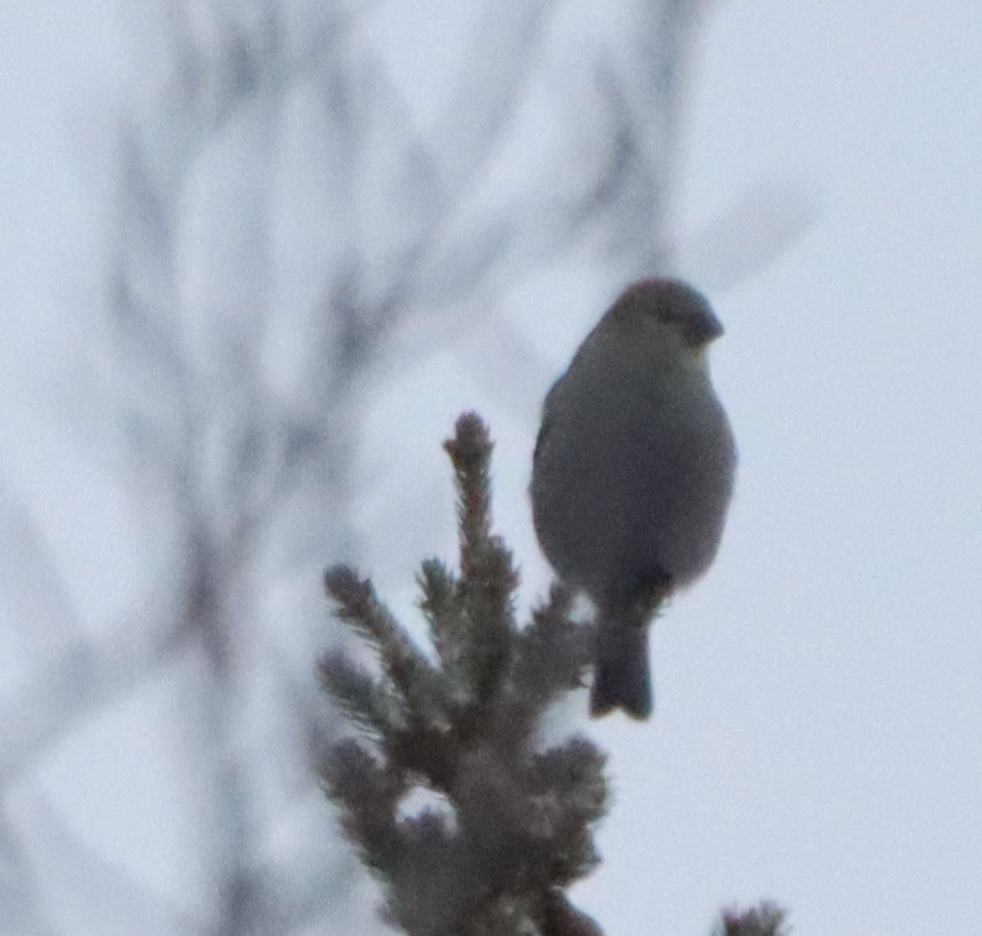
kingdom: Animalia
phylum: Chordata
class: Aves
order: Passeriformes
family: Fringillidae
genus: Pinicola
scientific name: Pinicola enucleator
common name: Pine grosbeak
